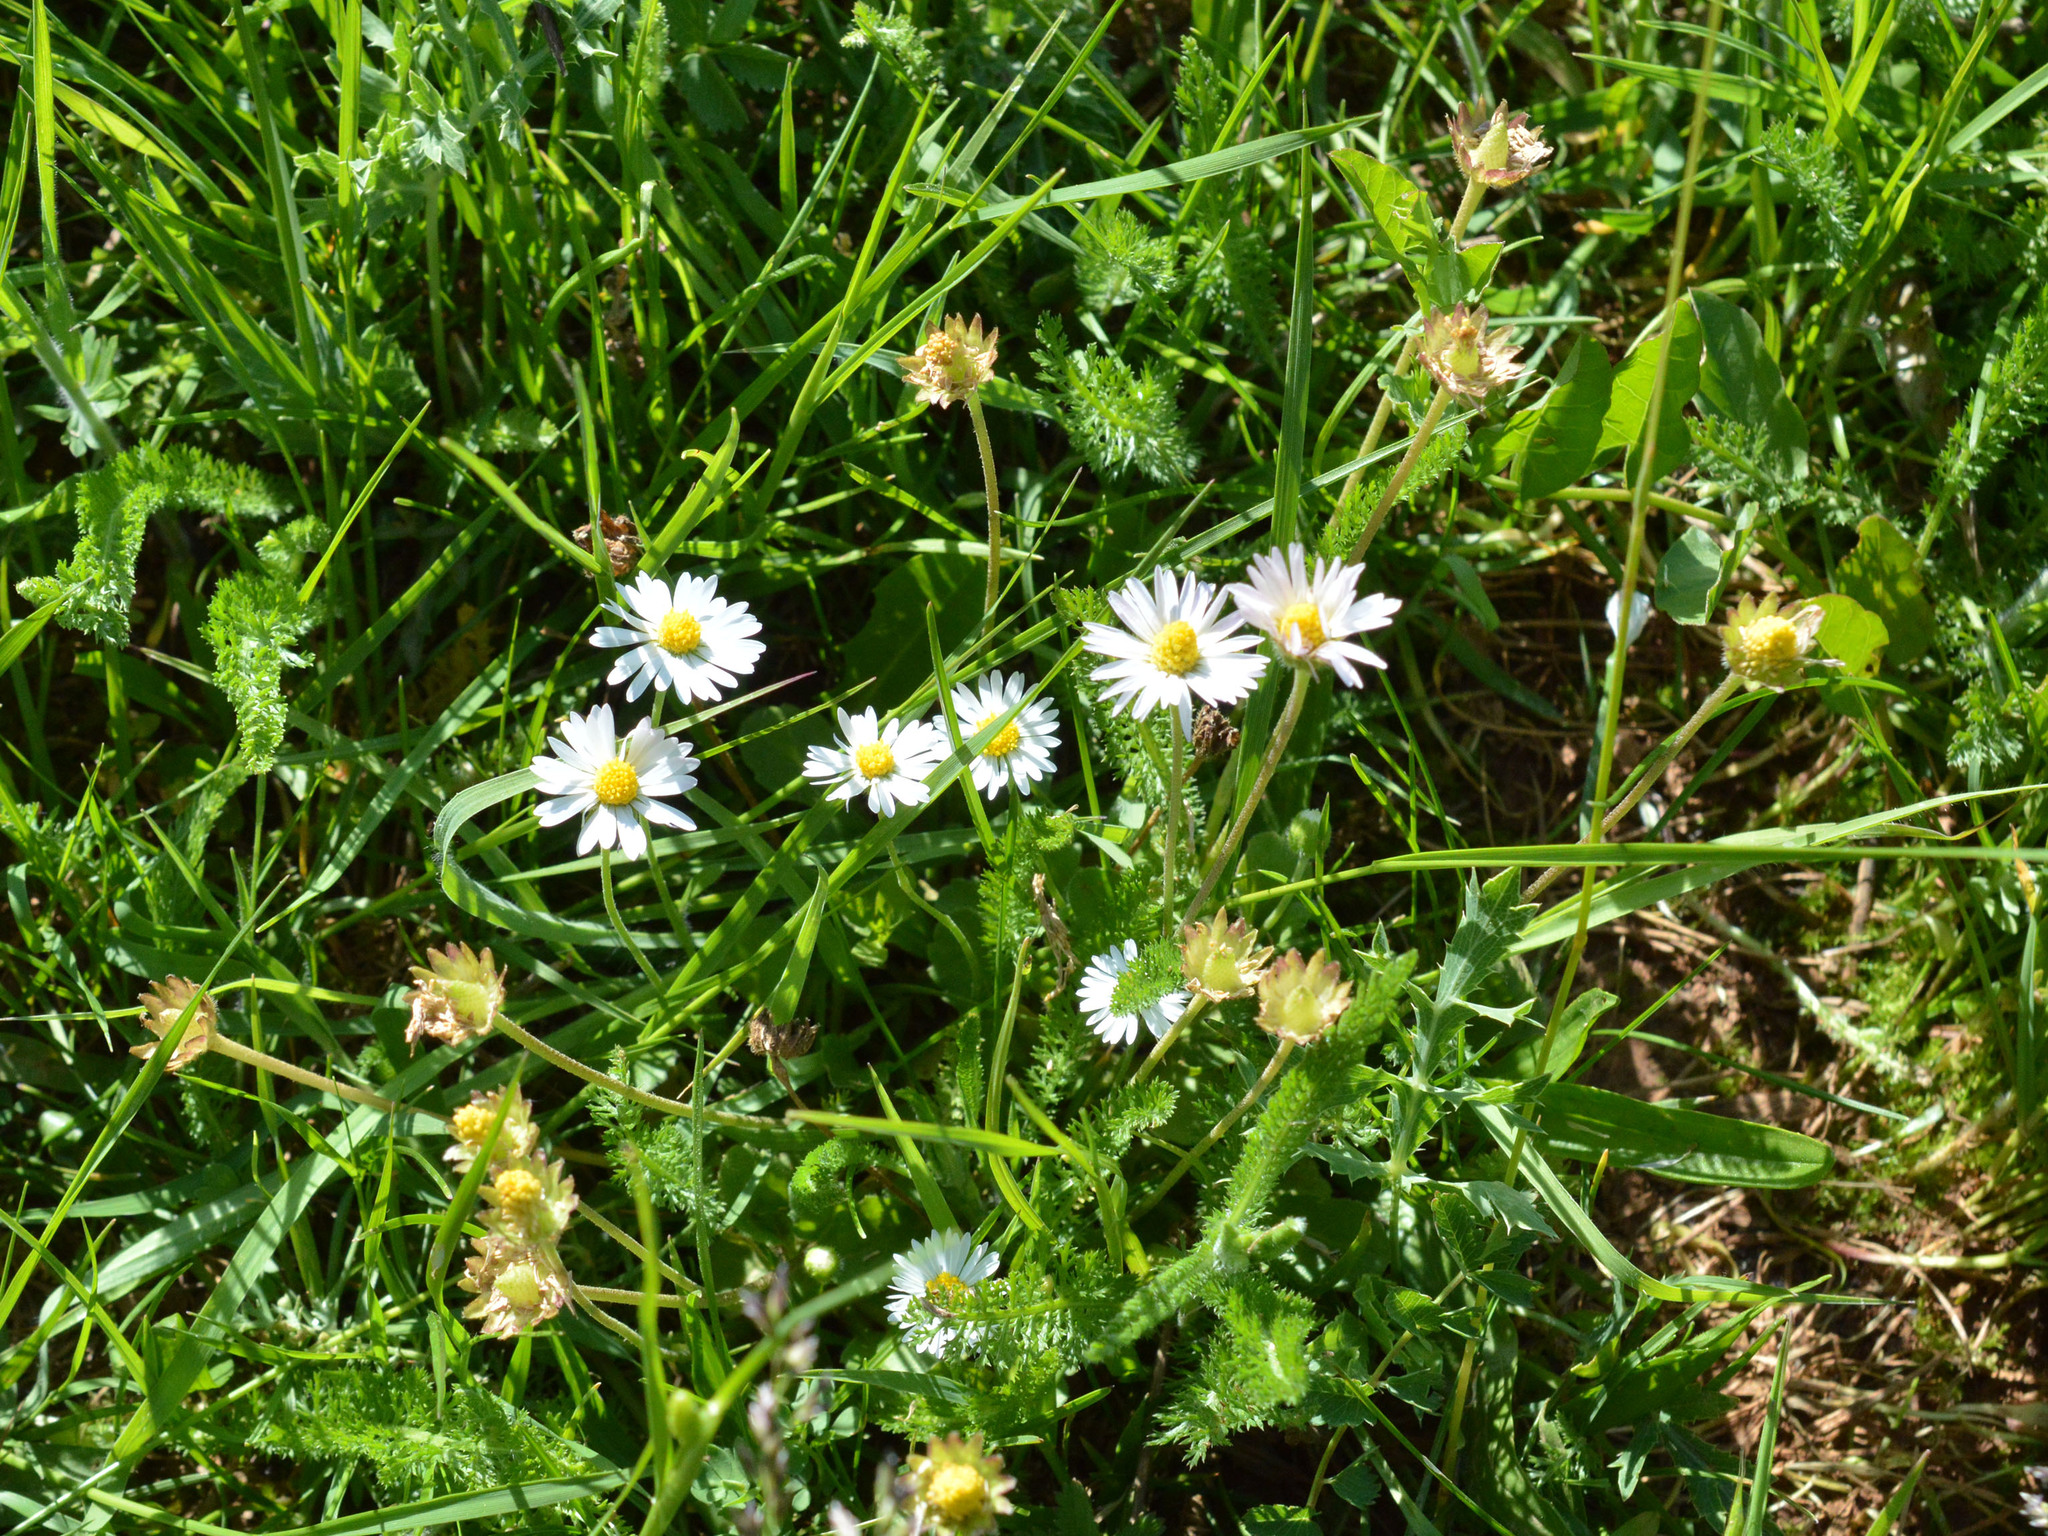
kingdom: Plantae
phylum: Tracheophyta
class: Magnoliopsida
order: Asterales
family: Asteraceae
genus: Bellis
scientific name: Bellis perennis
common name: Lawndaisy
